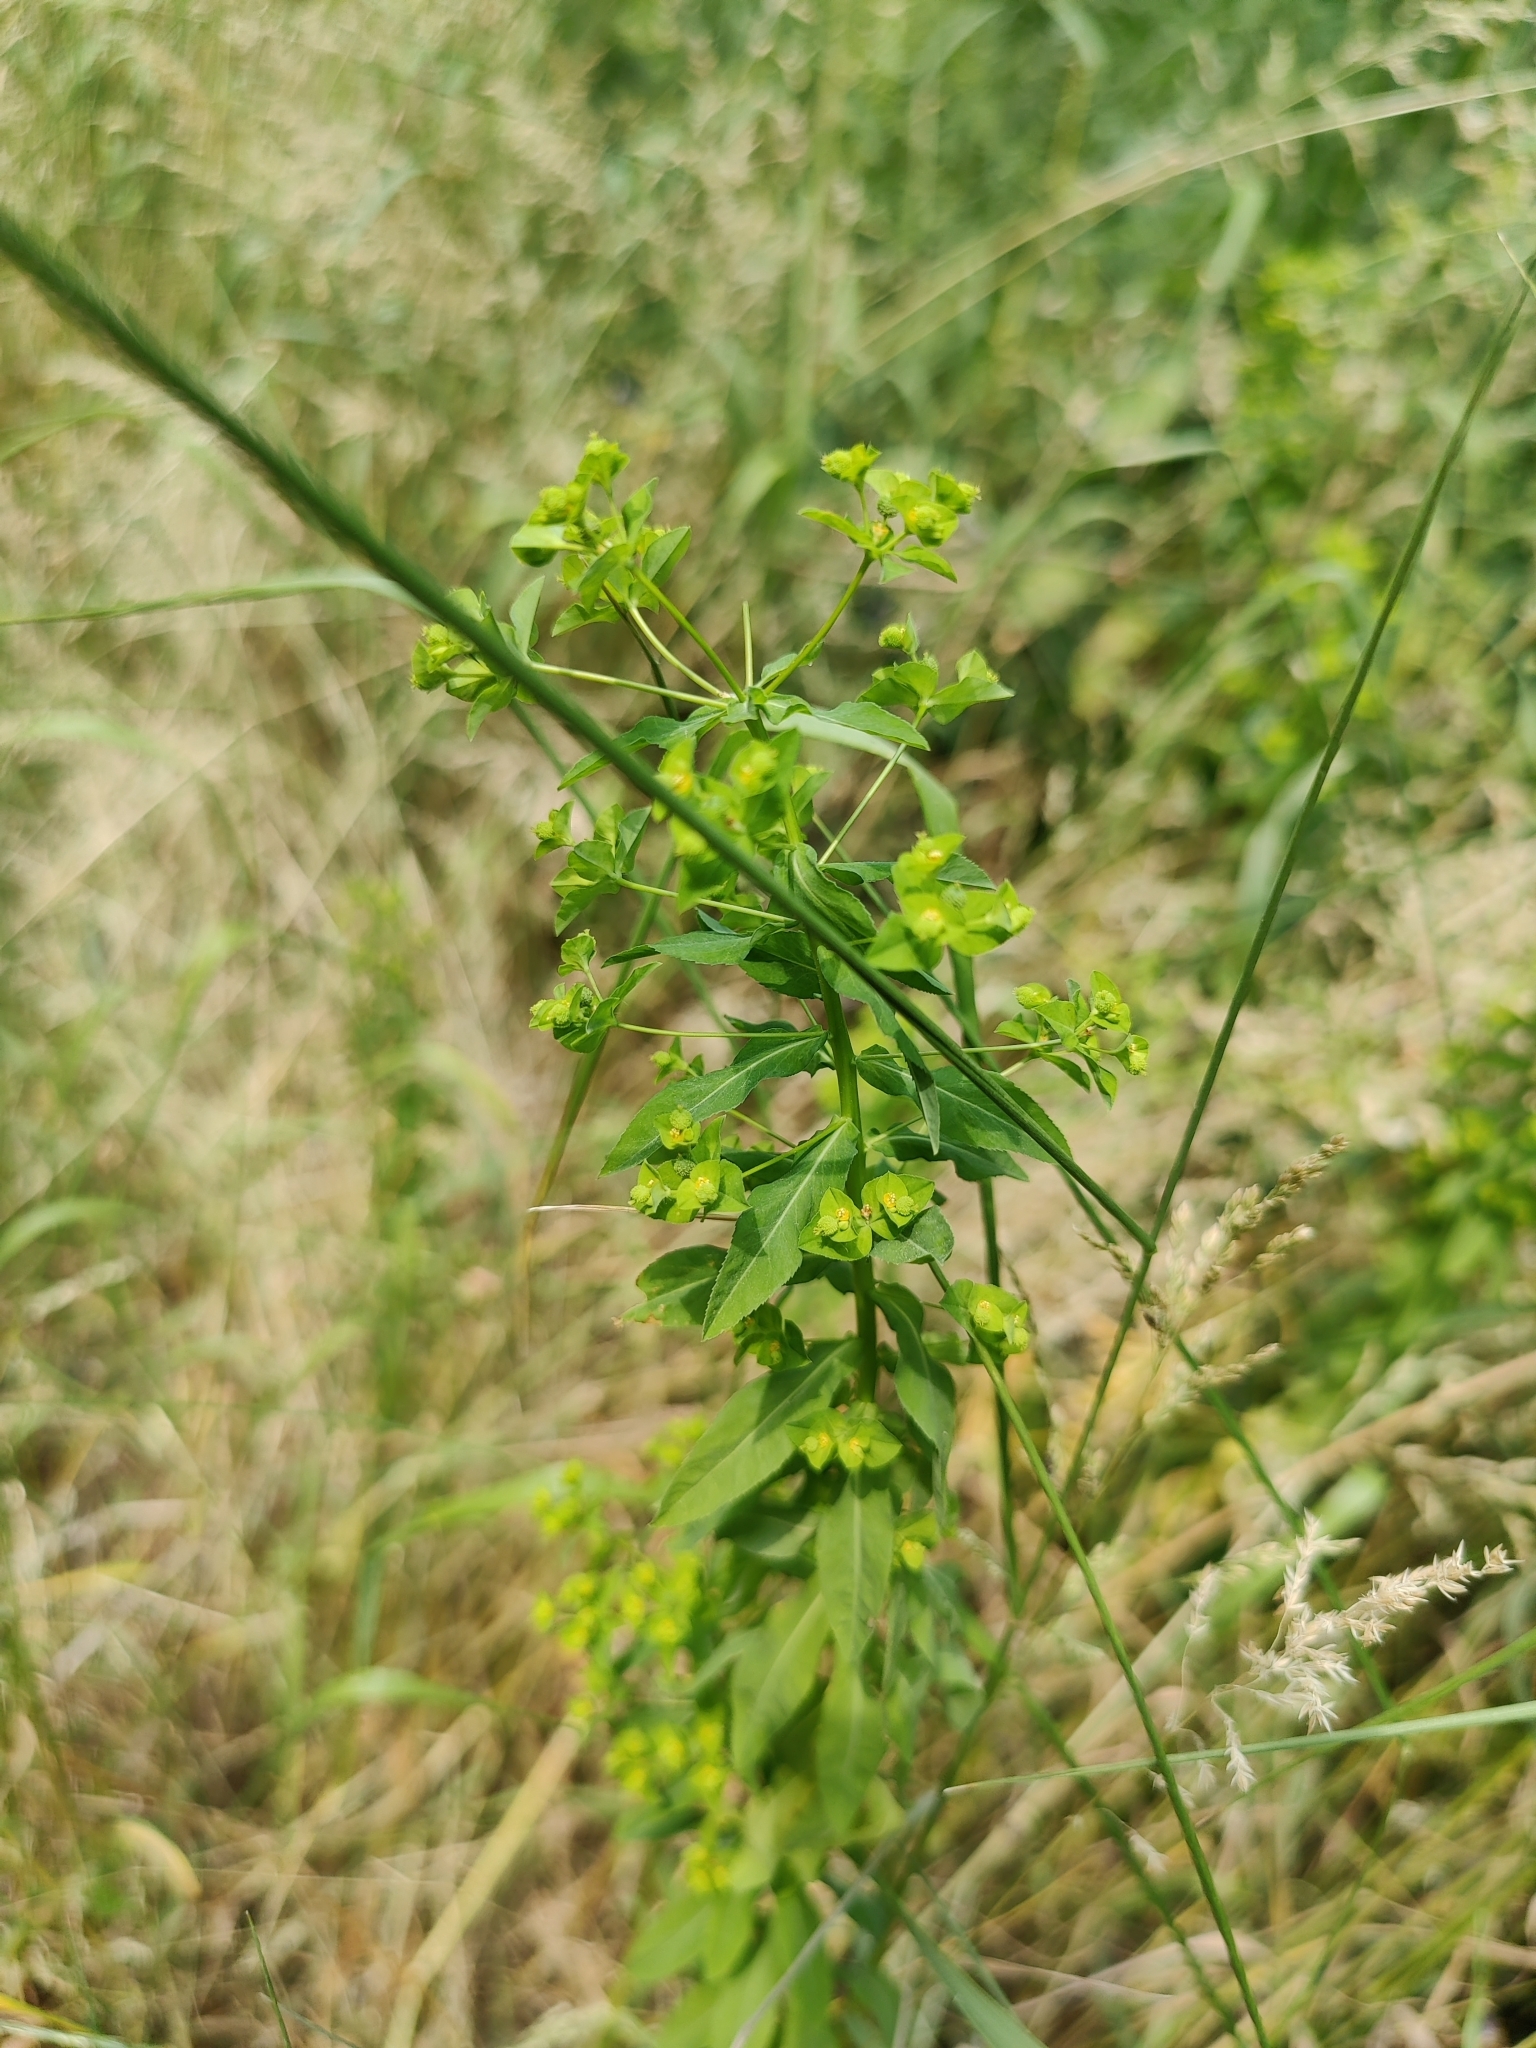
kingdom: Plantae
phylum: Tracheophyta
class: Magnoliopsida
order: Malpighiales
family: Euphorbiaceae
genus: Euphorbia
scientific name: Euphorbia stricta
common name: Upright spurge
